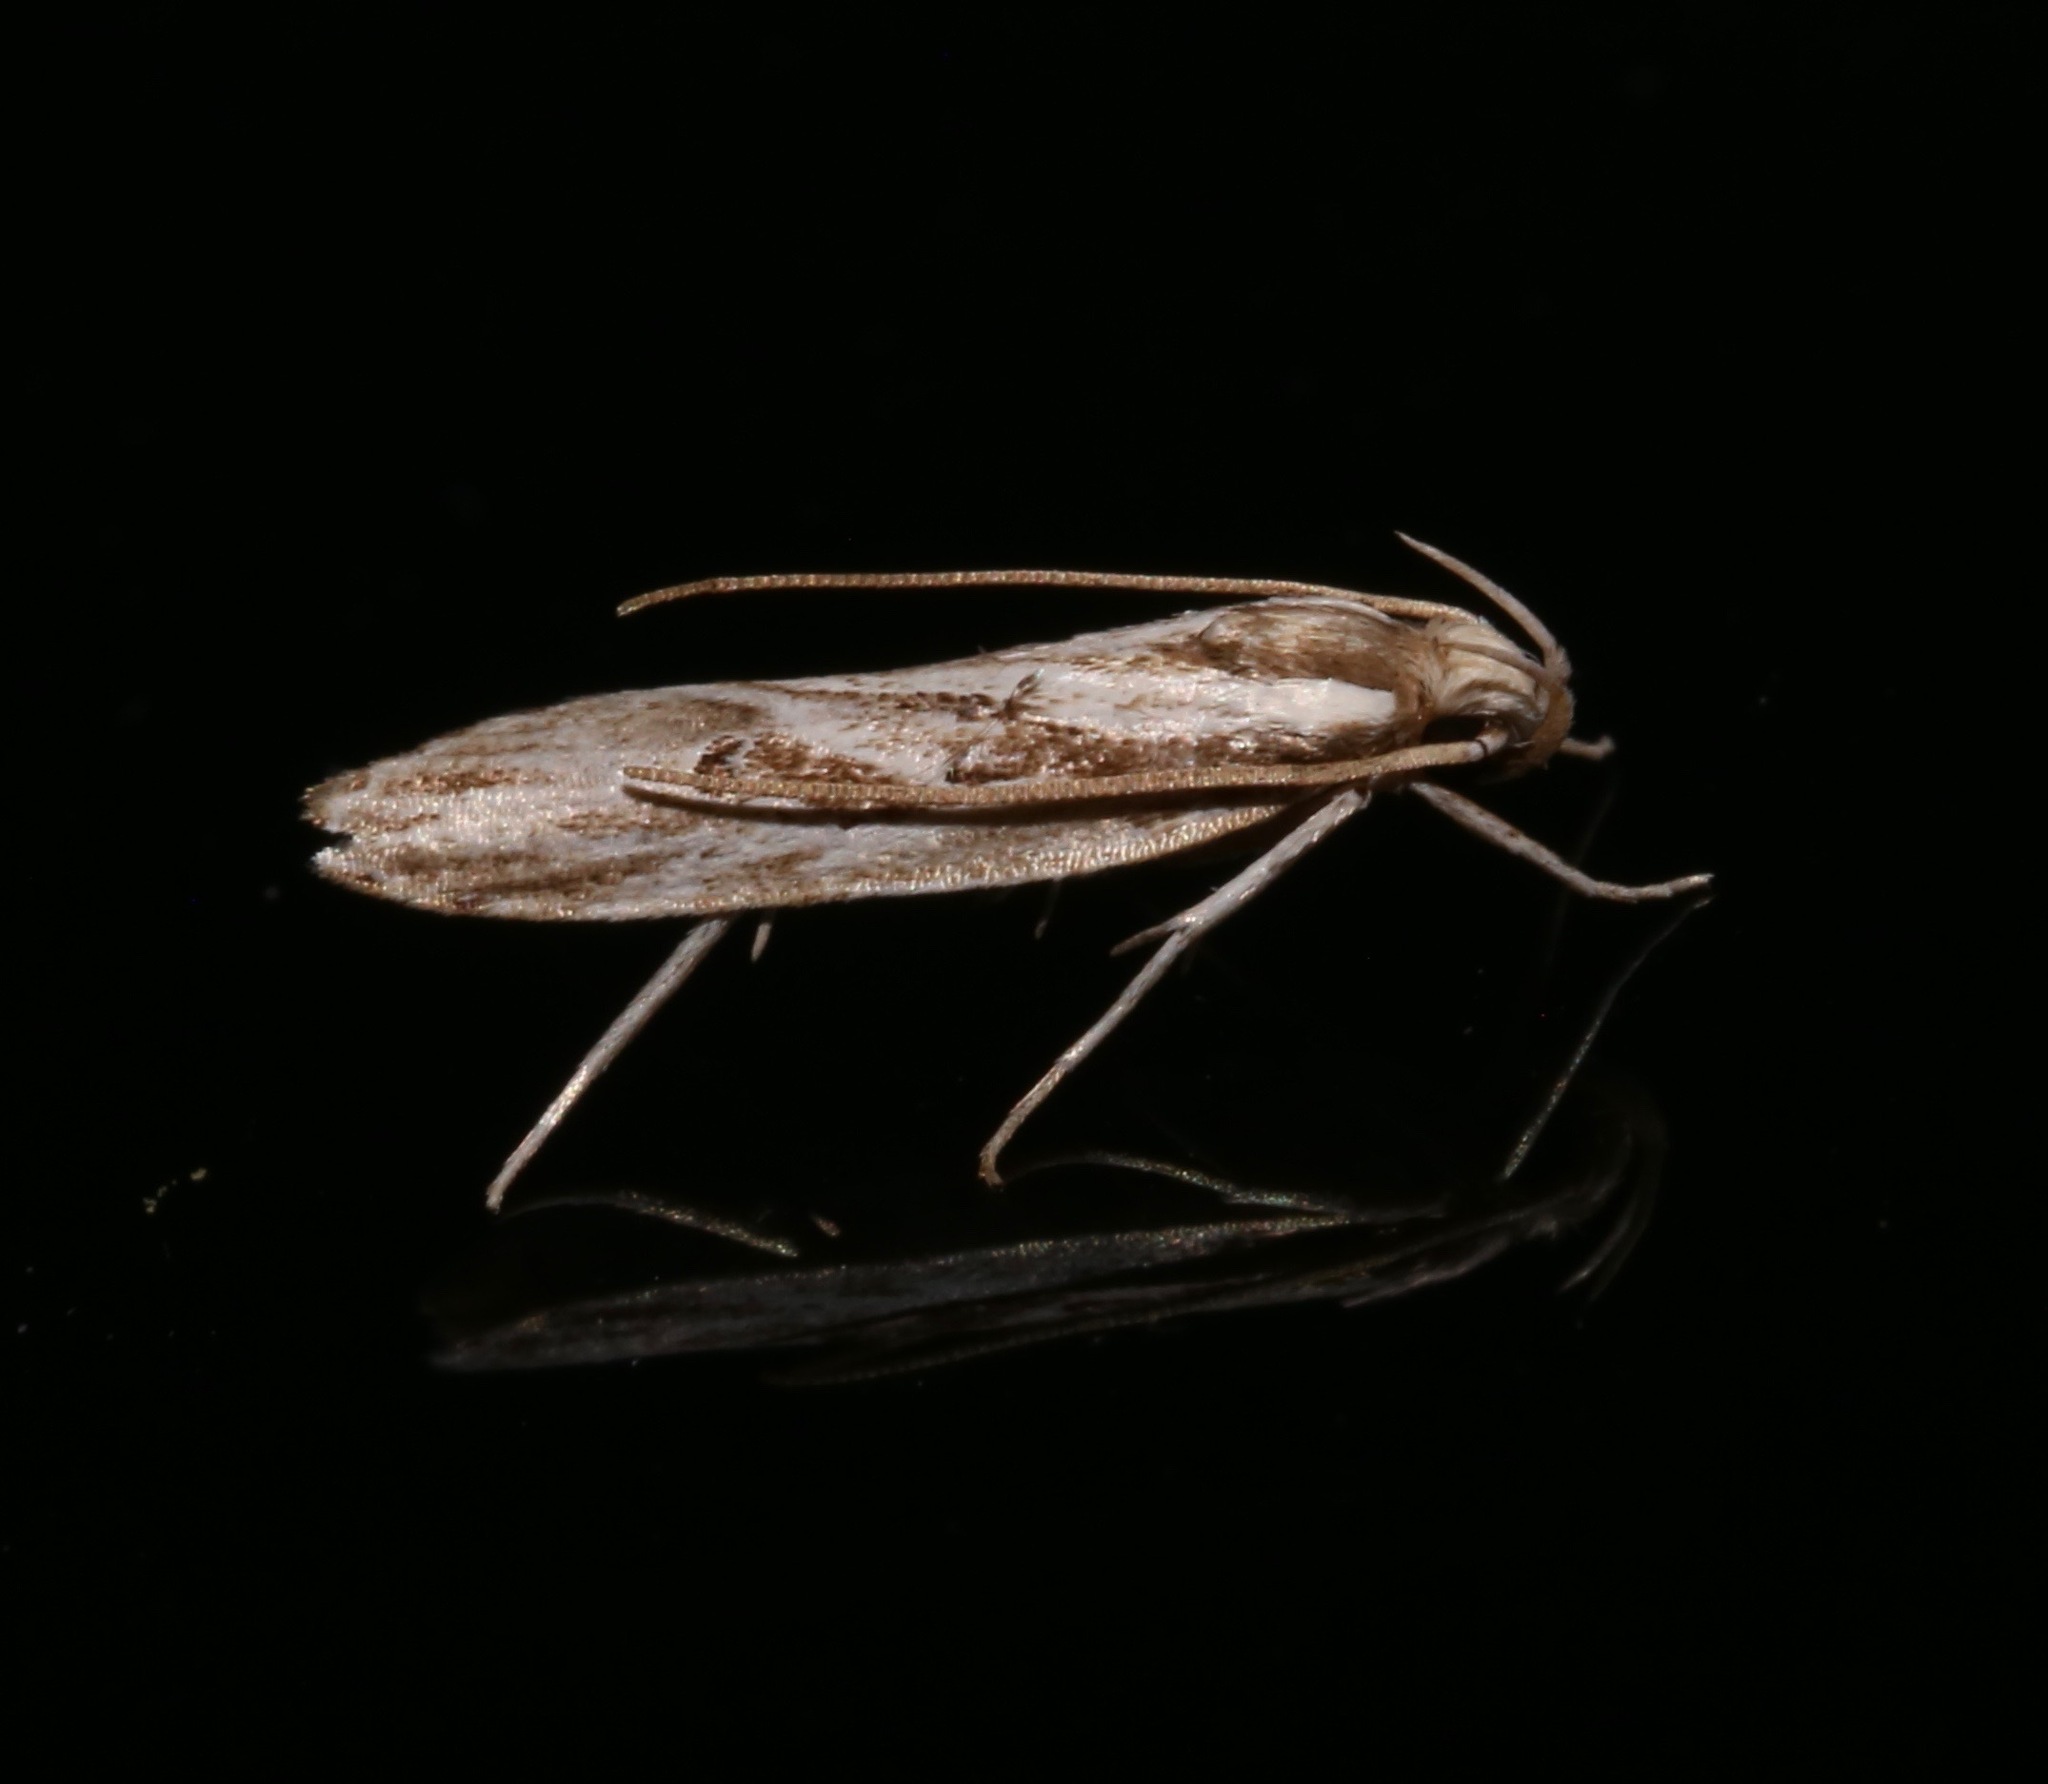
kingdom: Animalia
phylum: Arthropoda
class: Insecta
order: Lepidoptera
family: Depressariidae
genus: Eupragia
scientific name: Eupragia hospita
